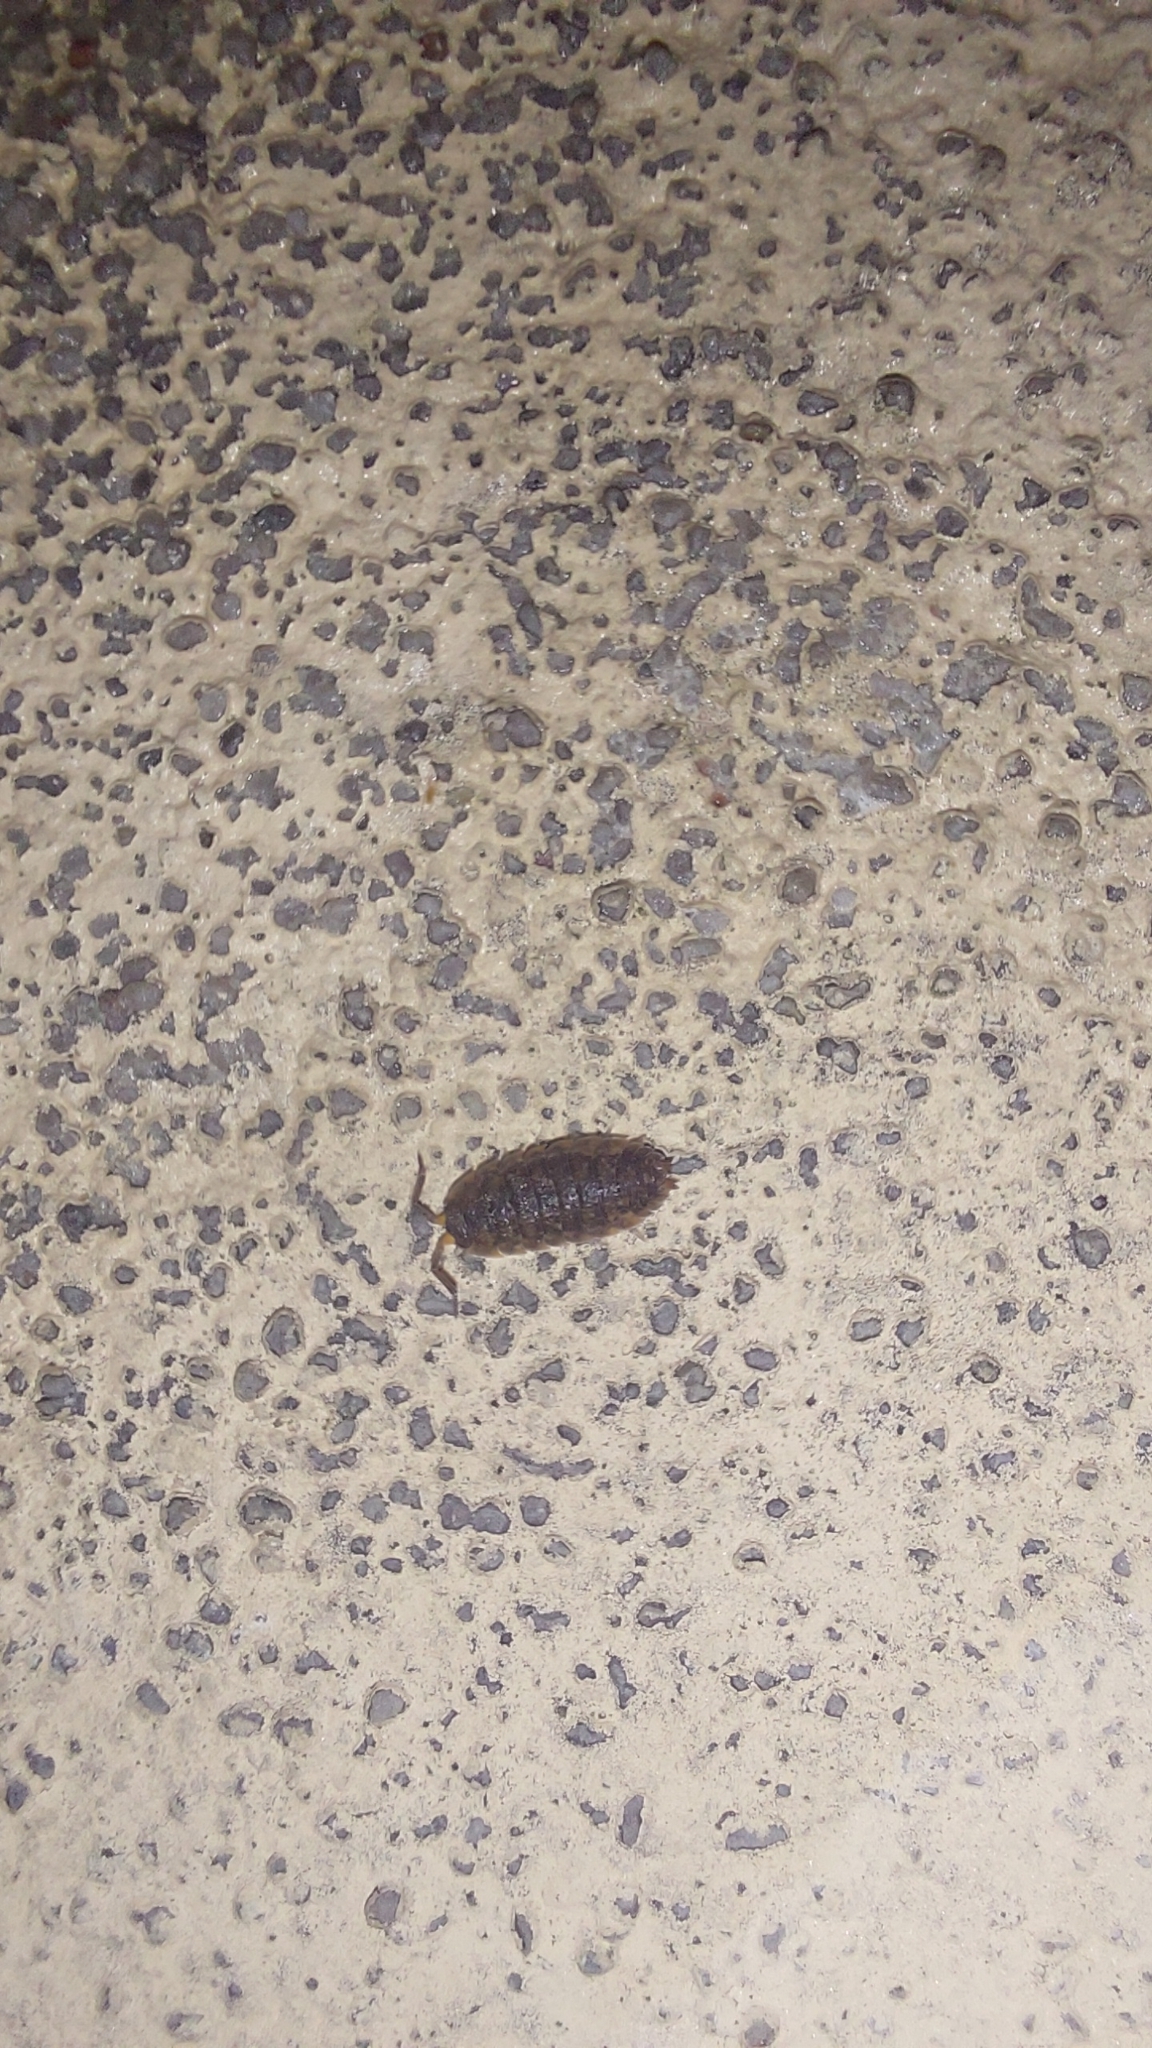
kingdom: Animalia
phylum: Arthropoda
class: Malacostraca
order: Isopoda
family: Porcellionidae
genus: Porcellio
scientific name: Porcellio scaber
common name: Common rough woodlouse
